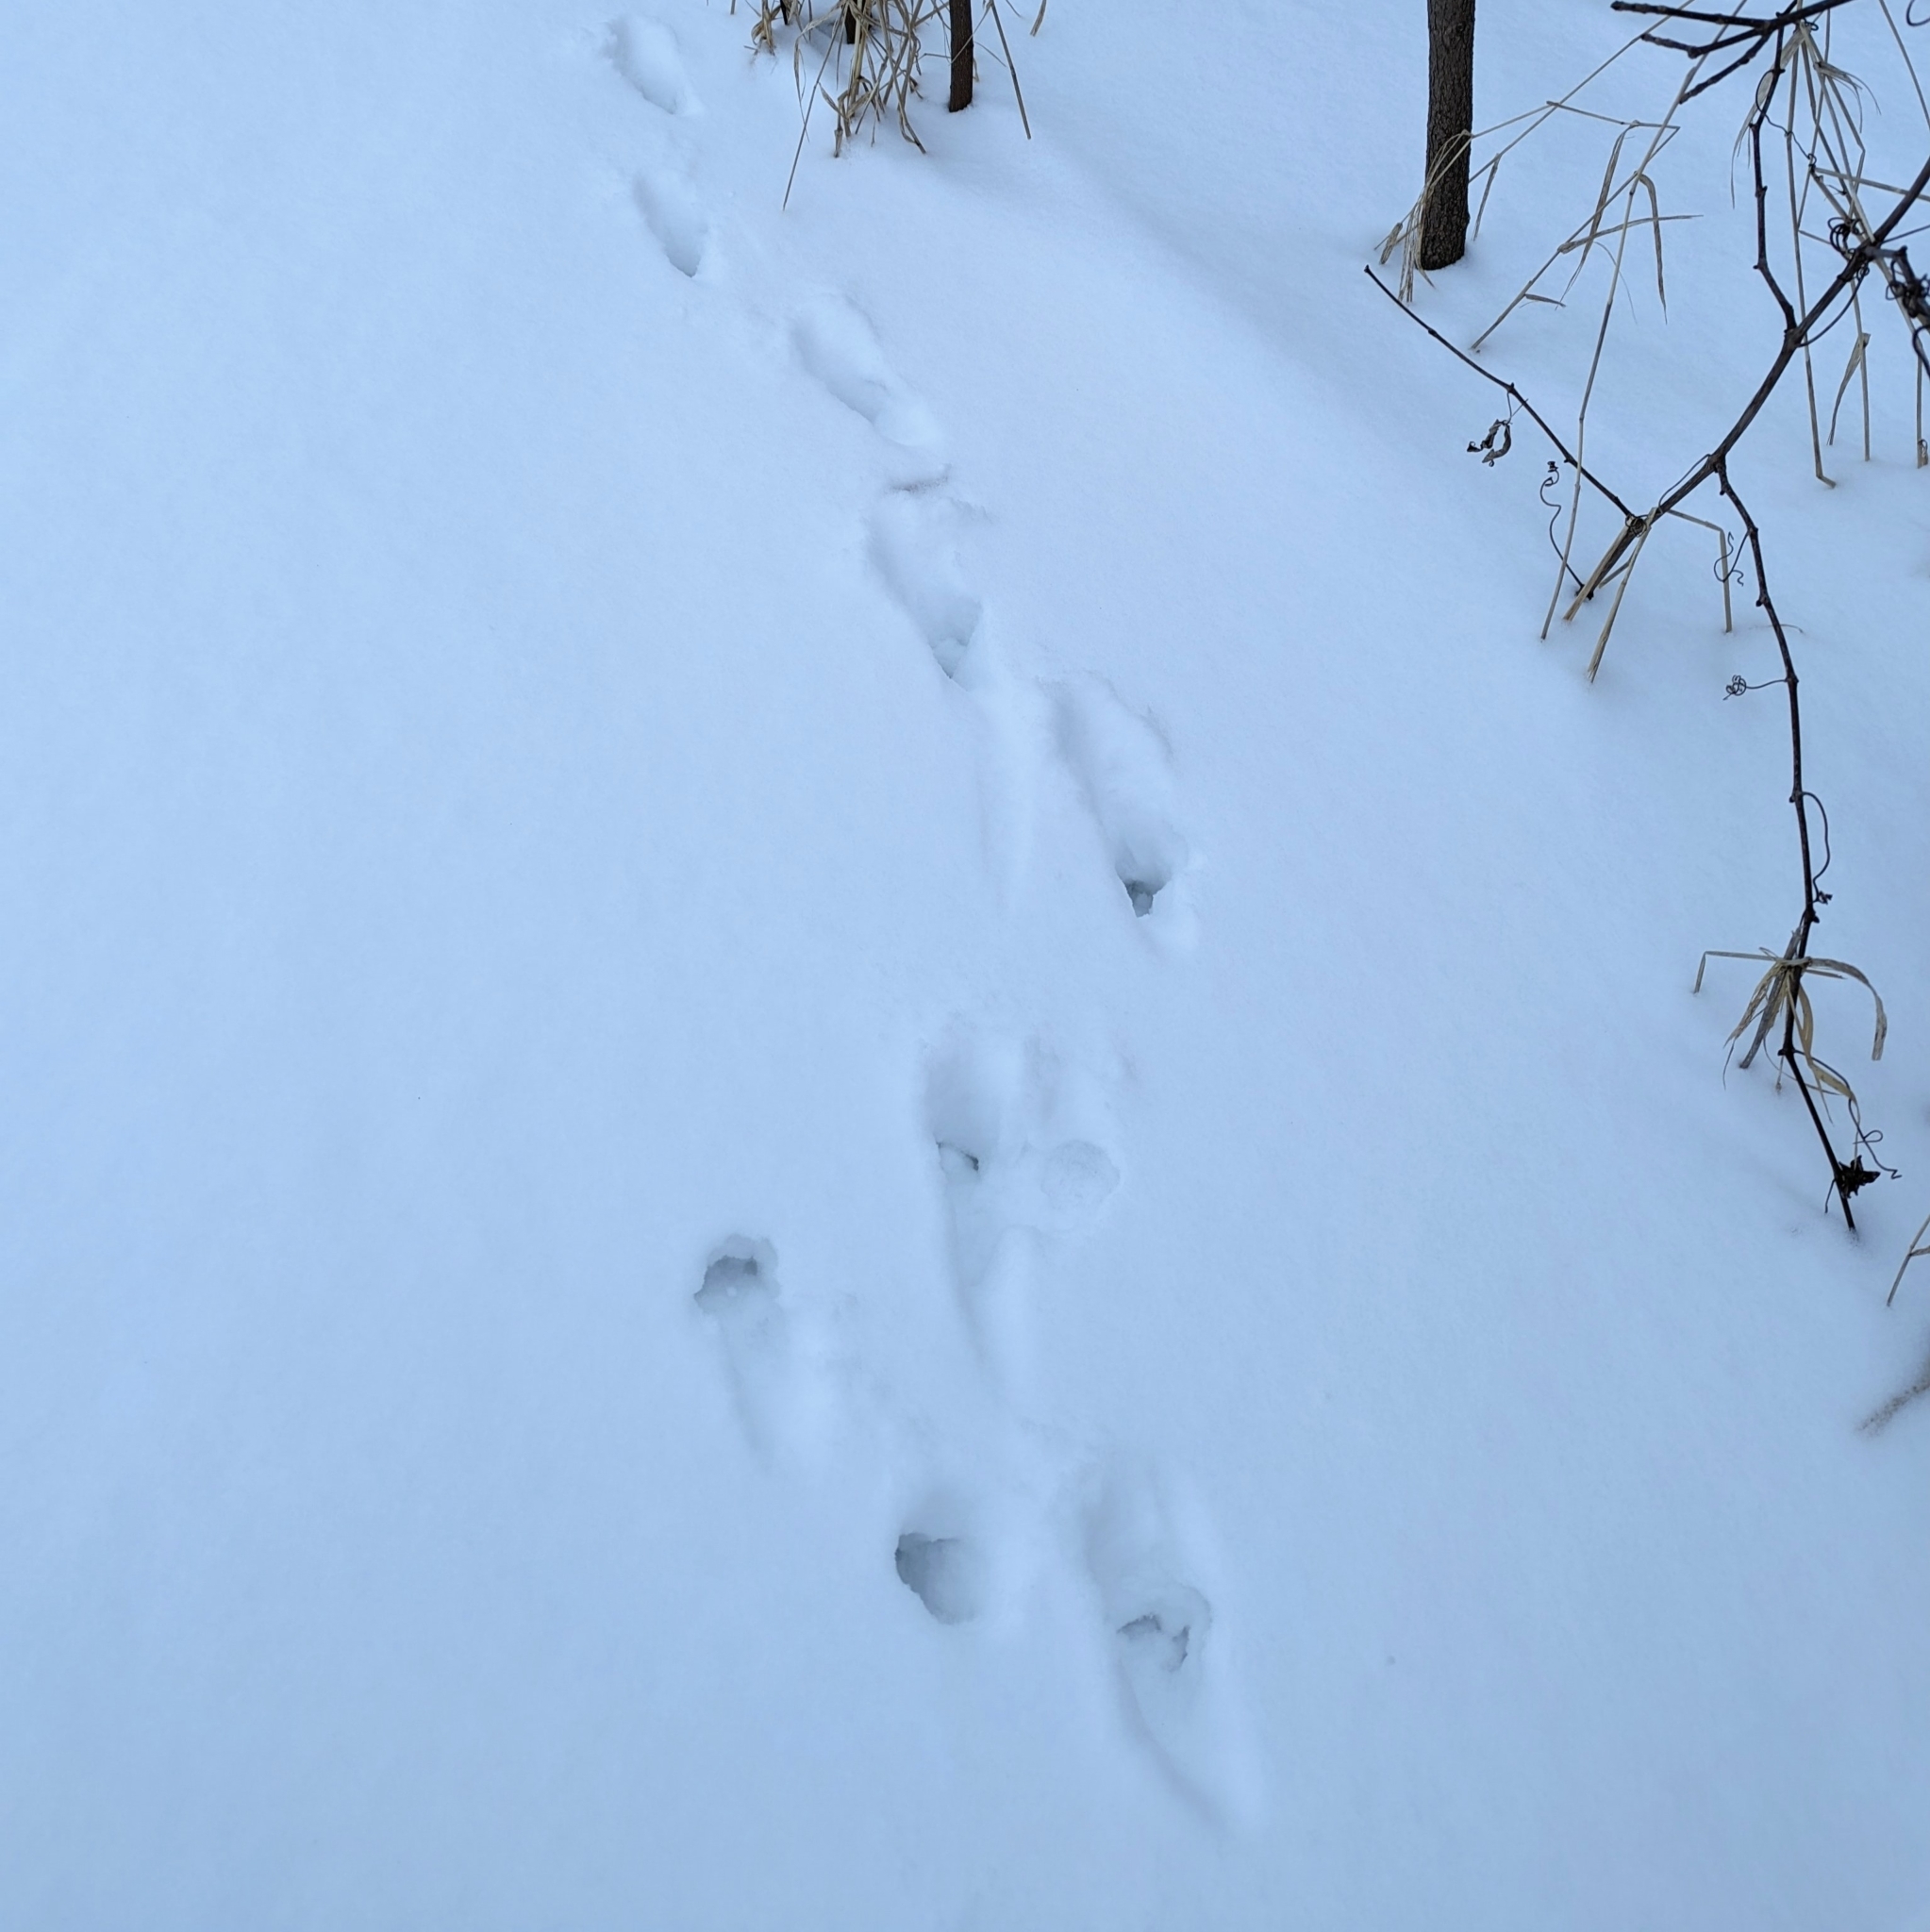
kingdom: Animalia
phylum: Chordata
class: Mammalia
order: Carnivora
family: Felidae
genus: Felis
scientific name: Felis catus
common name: Domestic cat
